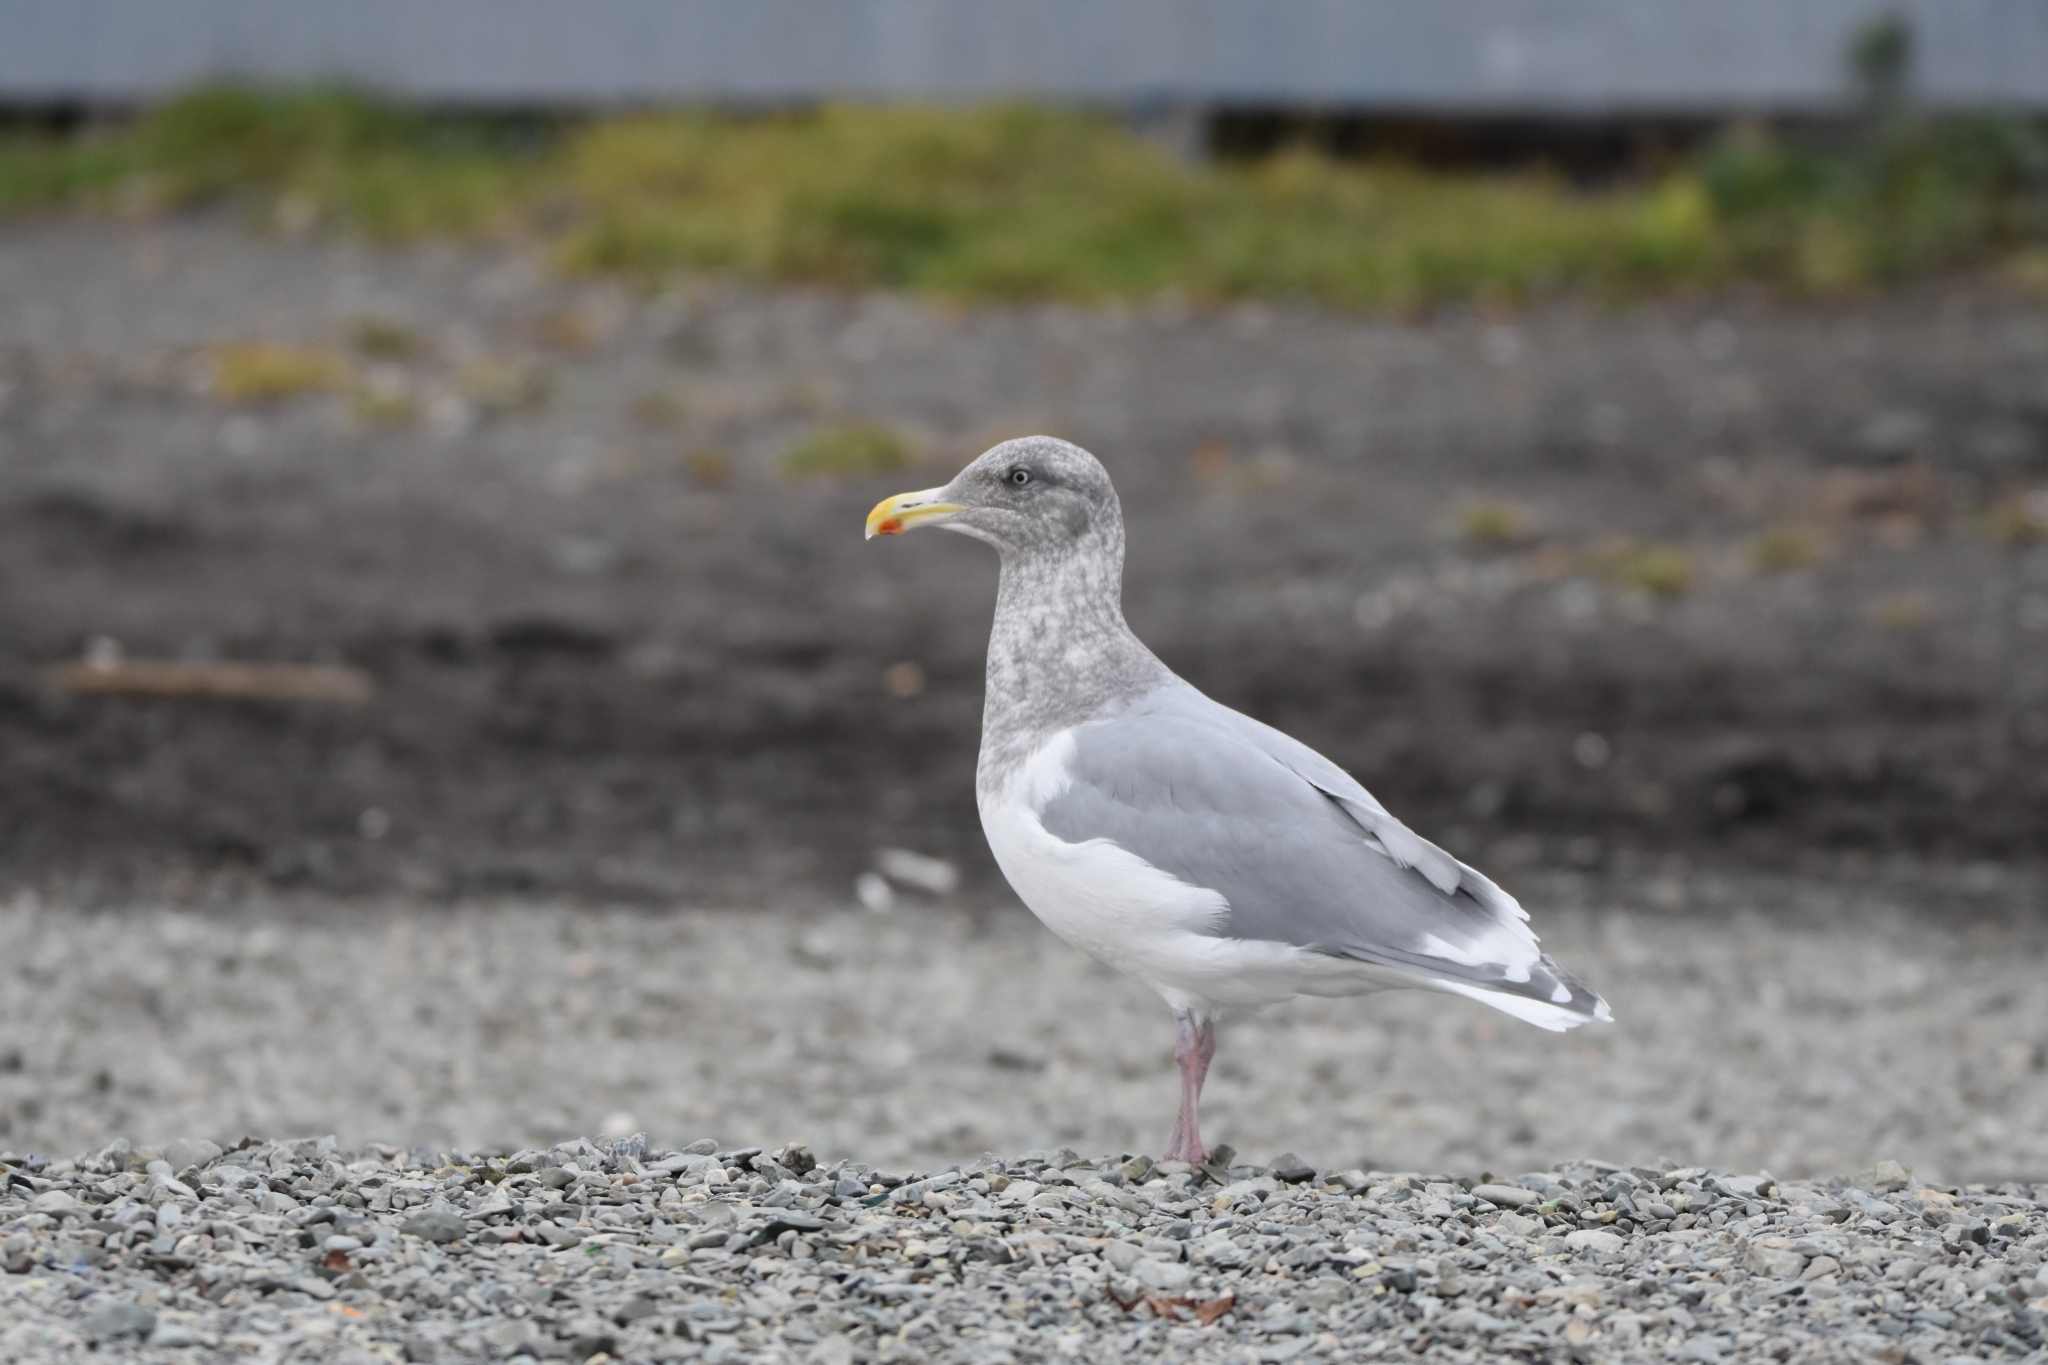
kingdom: Animalia
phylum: Chordata
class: Aves
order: Charadriiformes
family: Laridae
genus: Larus
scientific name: Larus glaucescens
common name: Glaucous-winged gull
